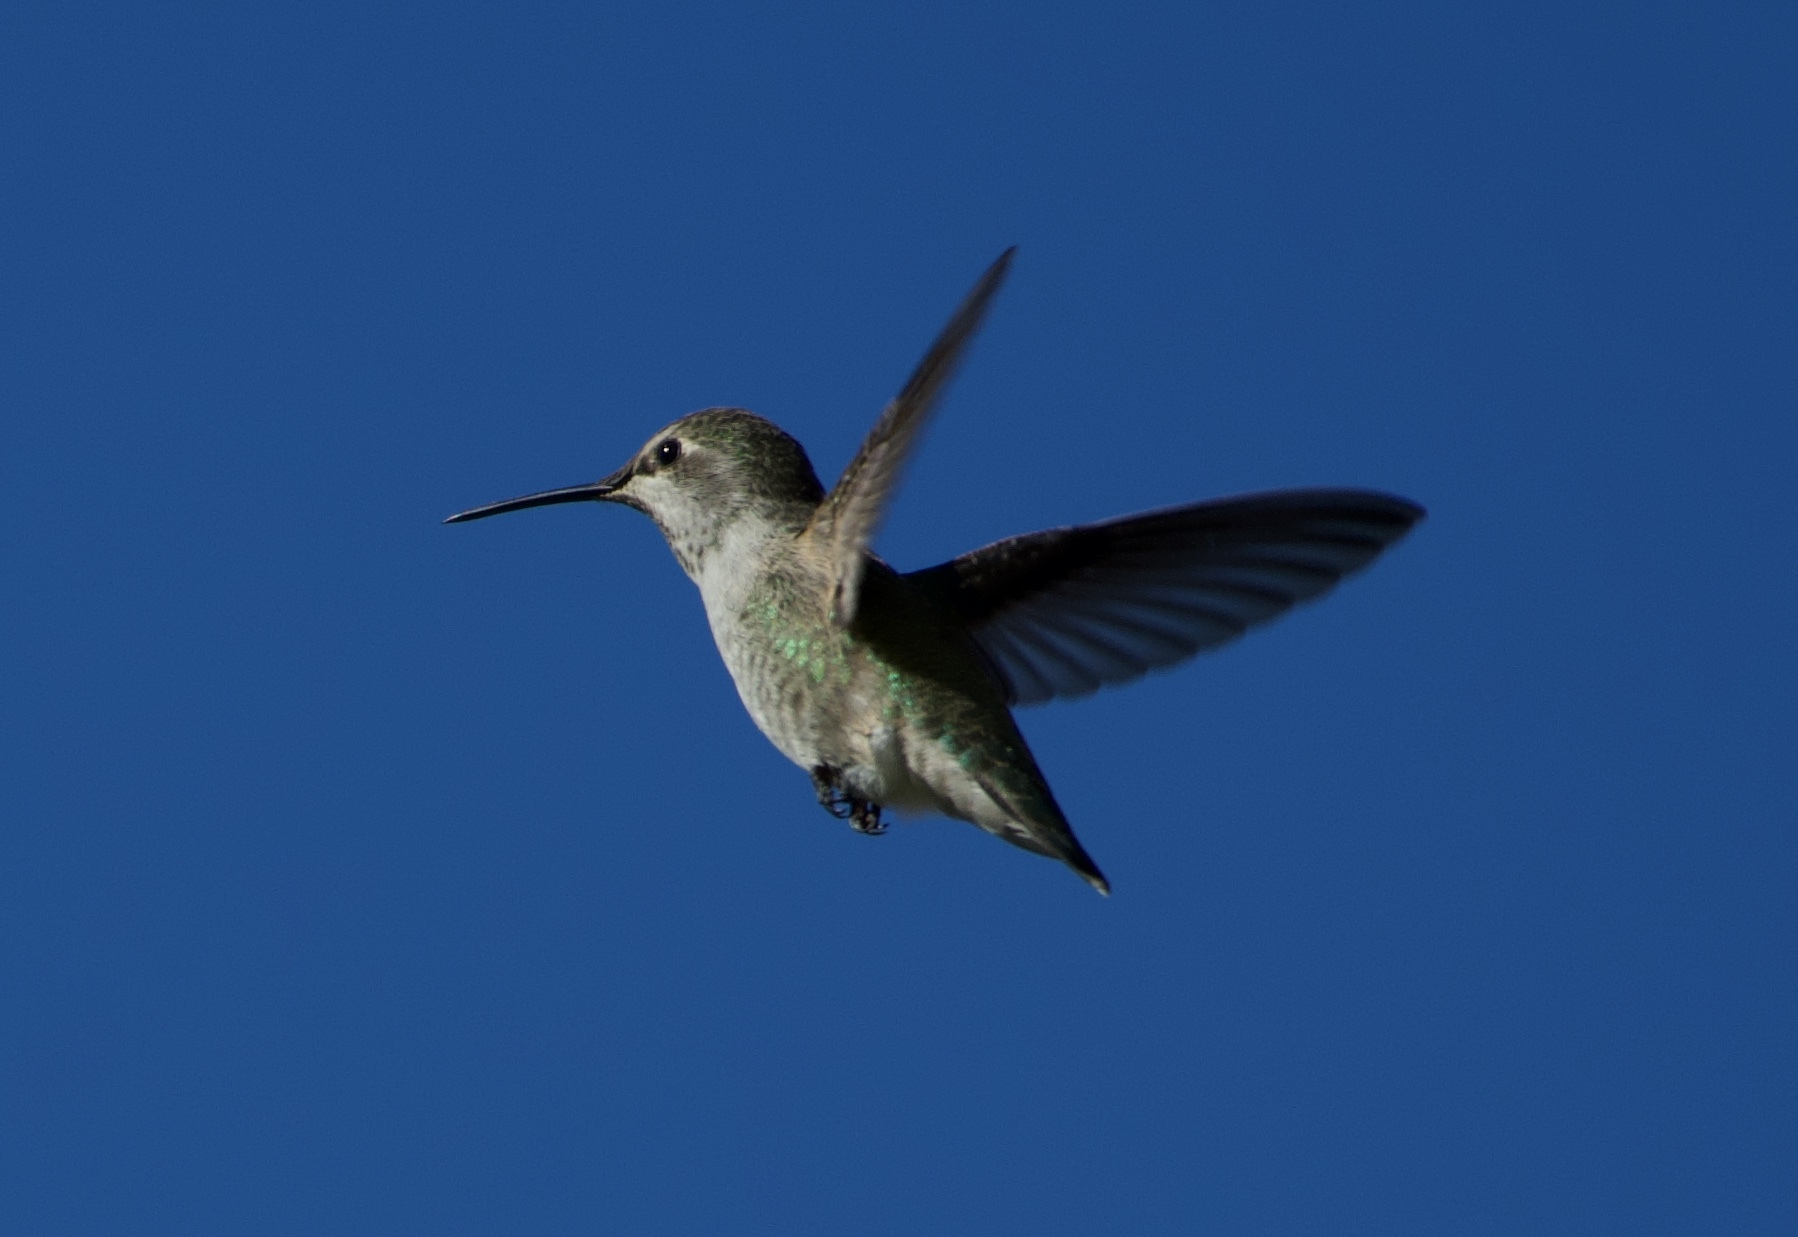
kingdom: Animalia
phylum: Chordata
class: Aves
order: Apodiformes
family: Trochilidae
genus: Calypte
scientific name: Calypte anna
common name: Anna's hummingbird
